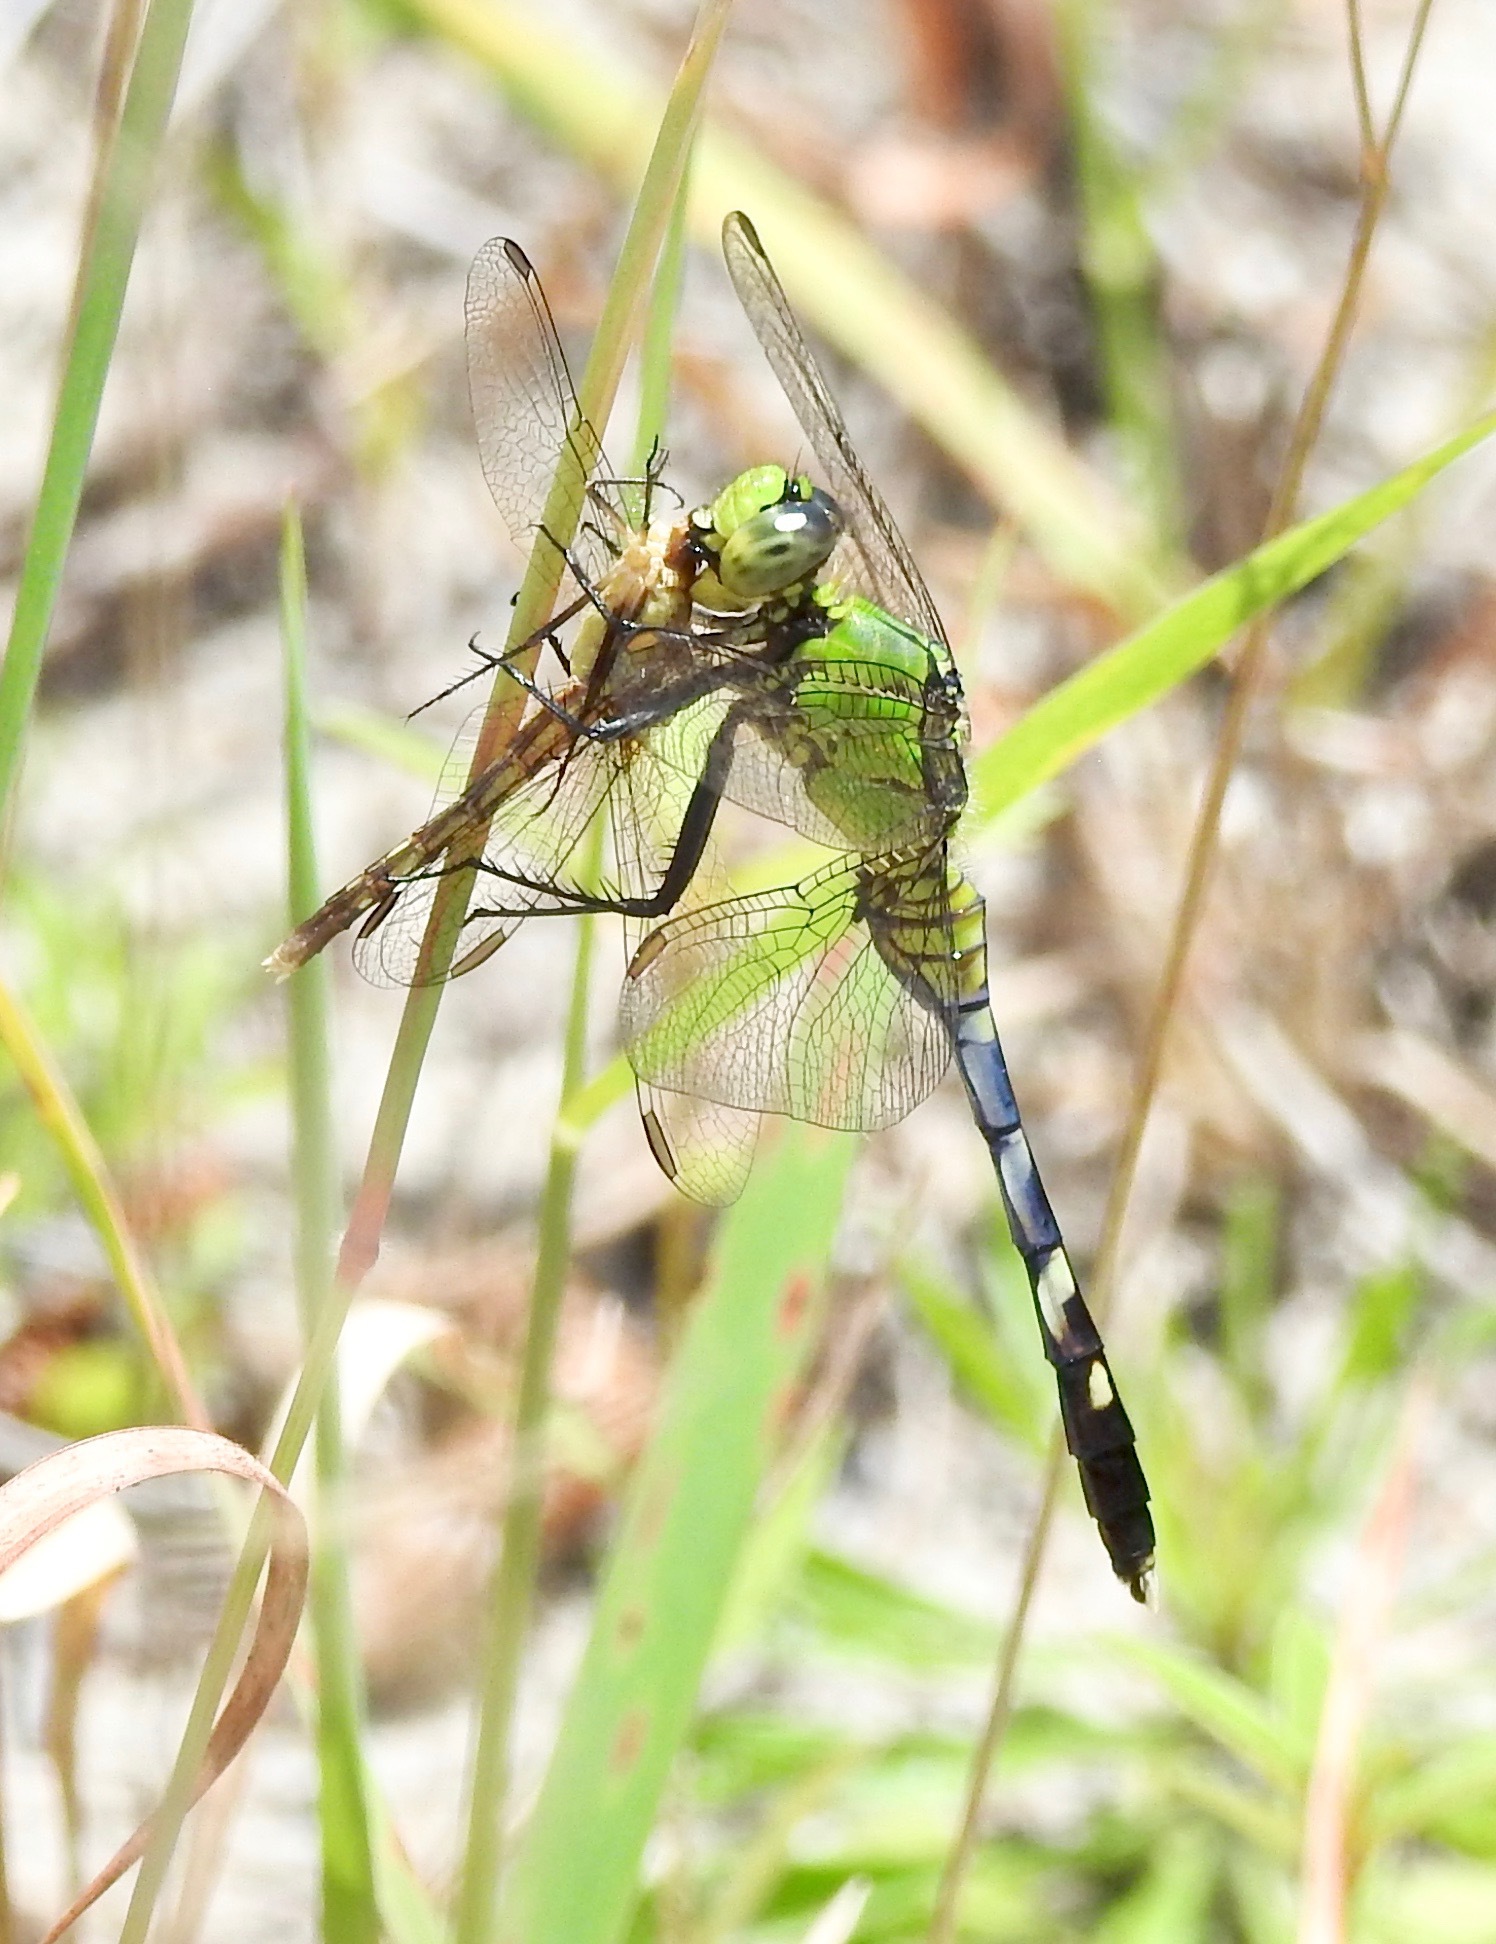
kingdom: Animalia
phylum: Arthropoda
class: Insecta
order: Odonata
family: Libellulidae
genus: Erythemis
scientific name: Erythemis simplicicollis
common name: Eastern pondhawk
